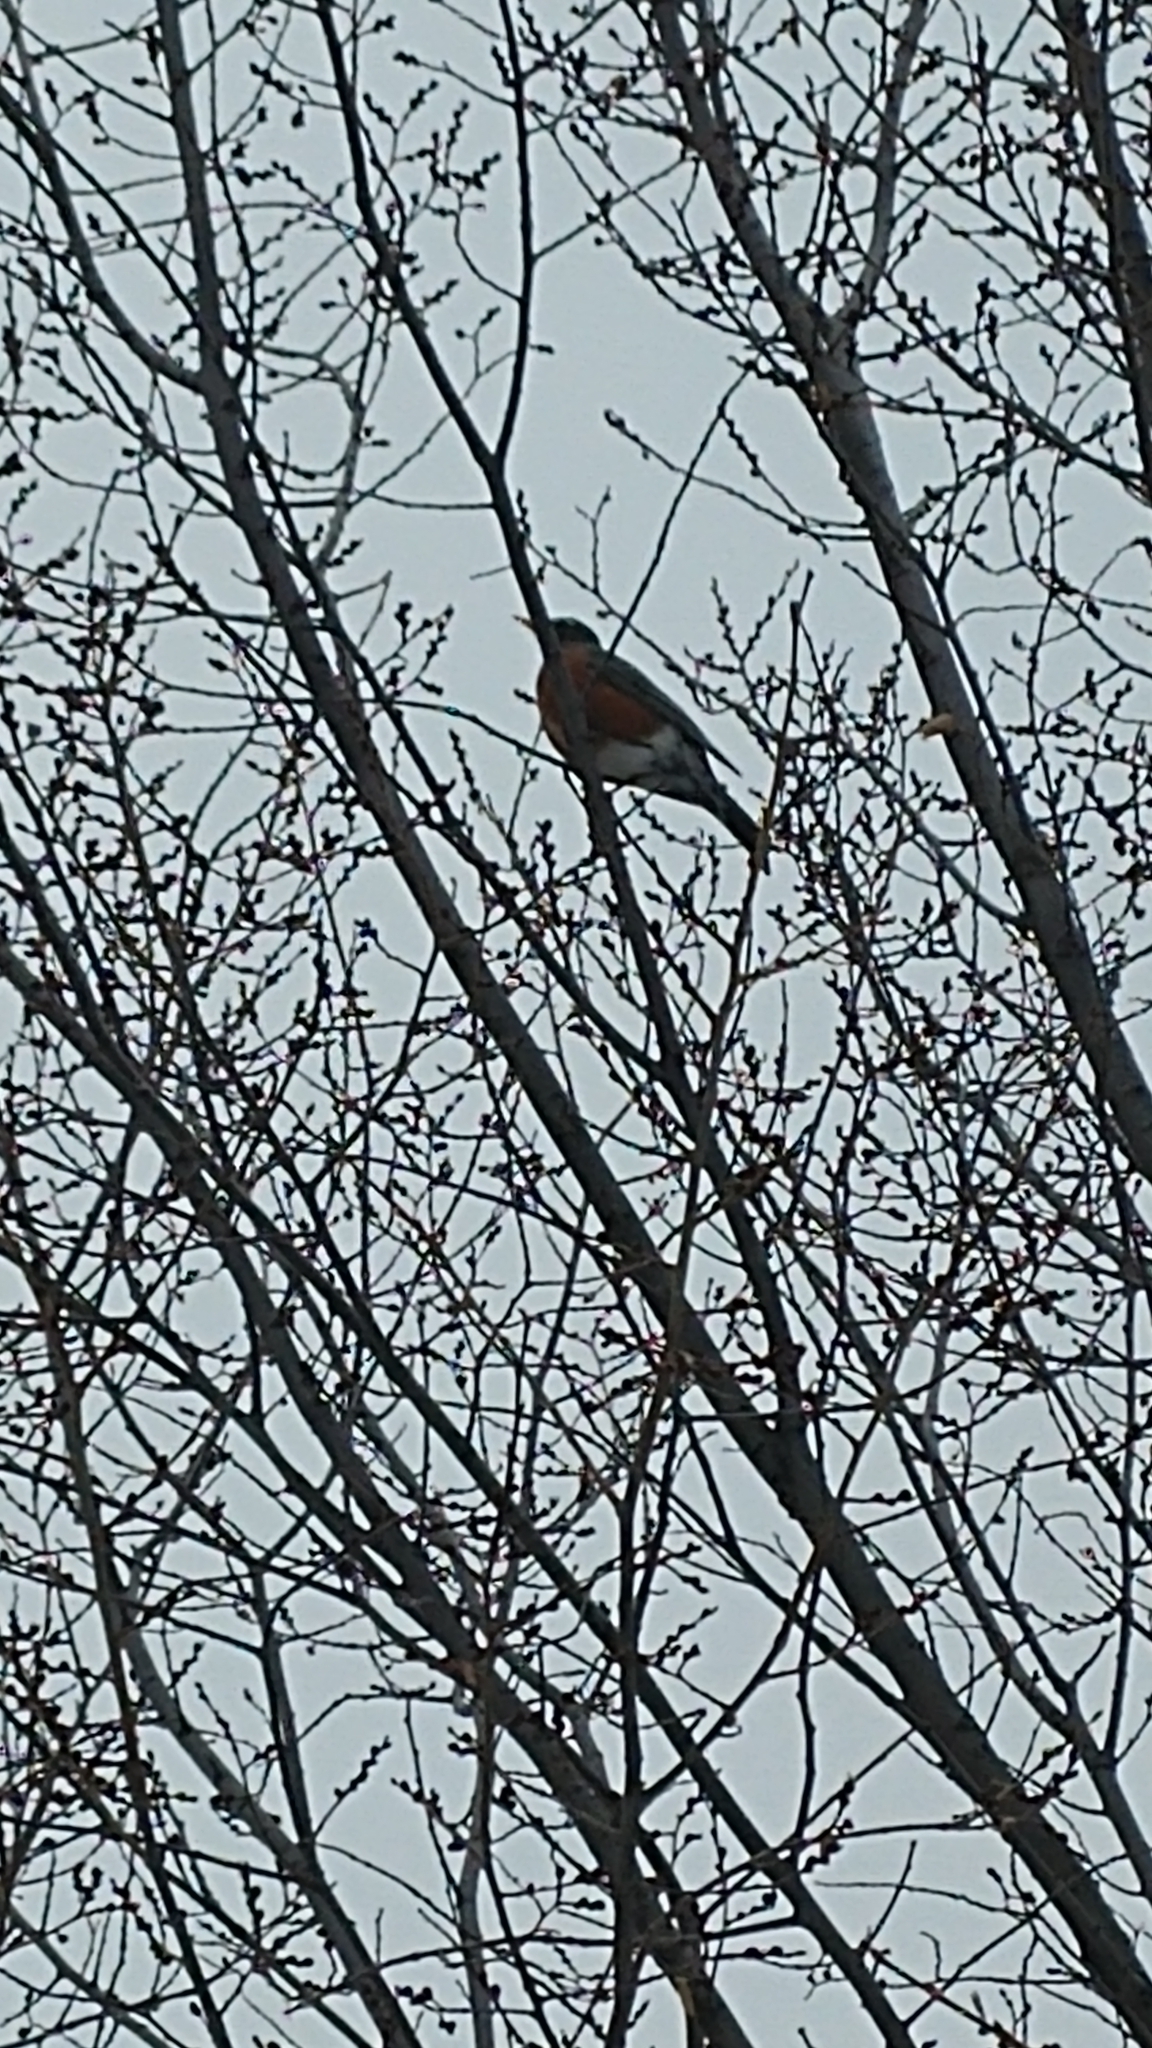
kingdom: Animalia
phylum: Chordata
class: Aves
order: Passeriformes
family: Turdidae
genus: Turdus
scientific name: Turdus migratorius
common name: American robin
